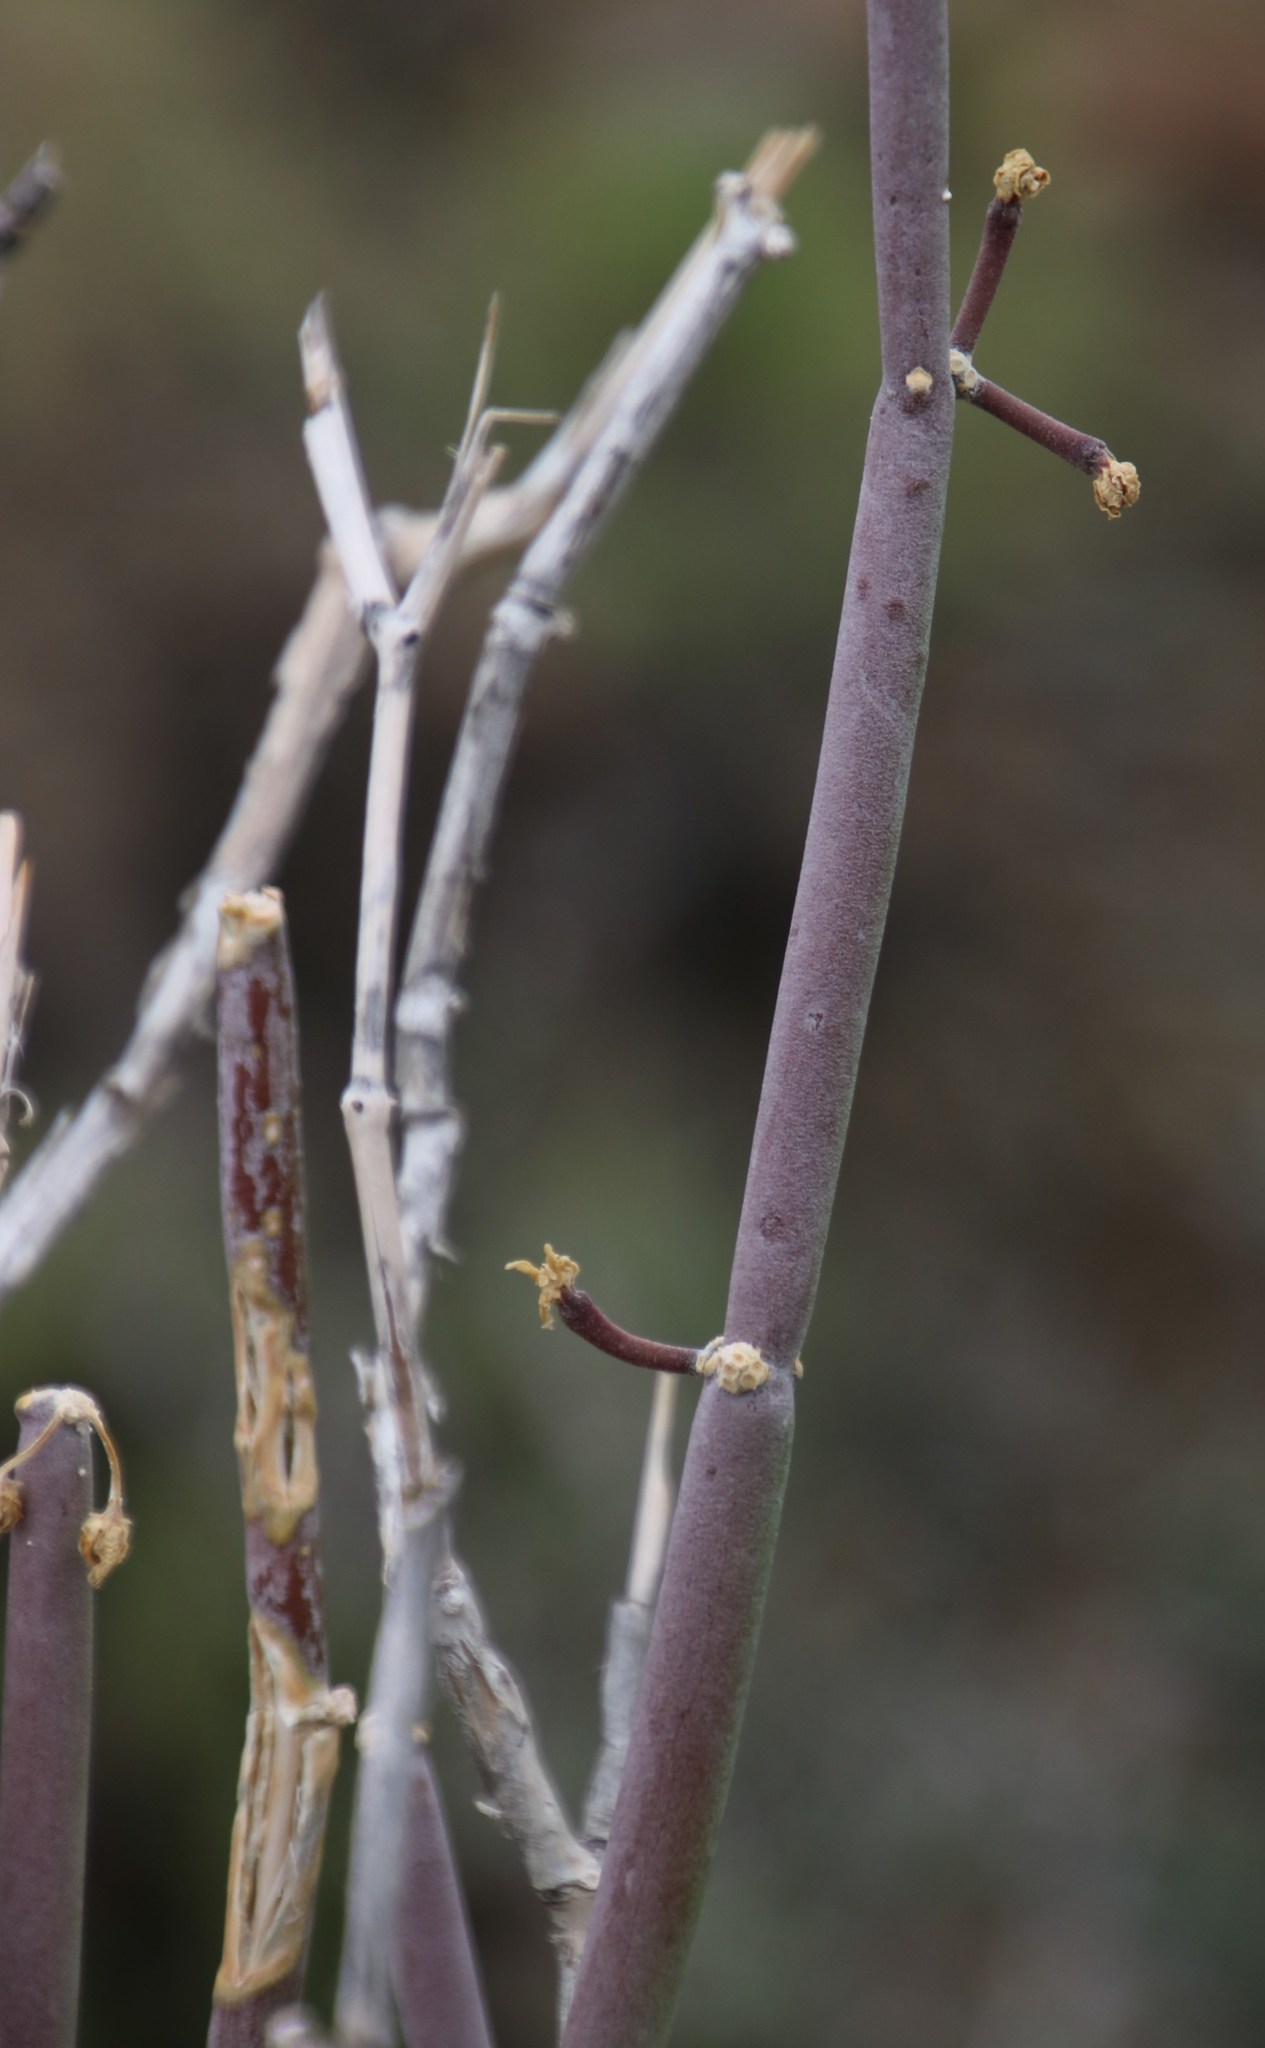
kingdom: Plantae
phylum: Tracheophyta
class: Magnoliopsida
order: Gentianales
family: Apocynaceae
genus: Cynanchum
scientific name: Cynanchum viminale
